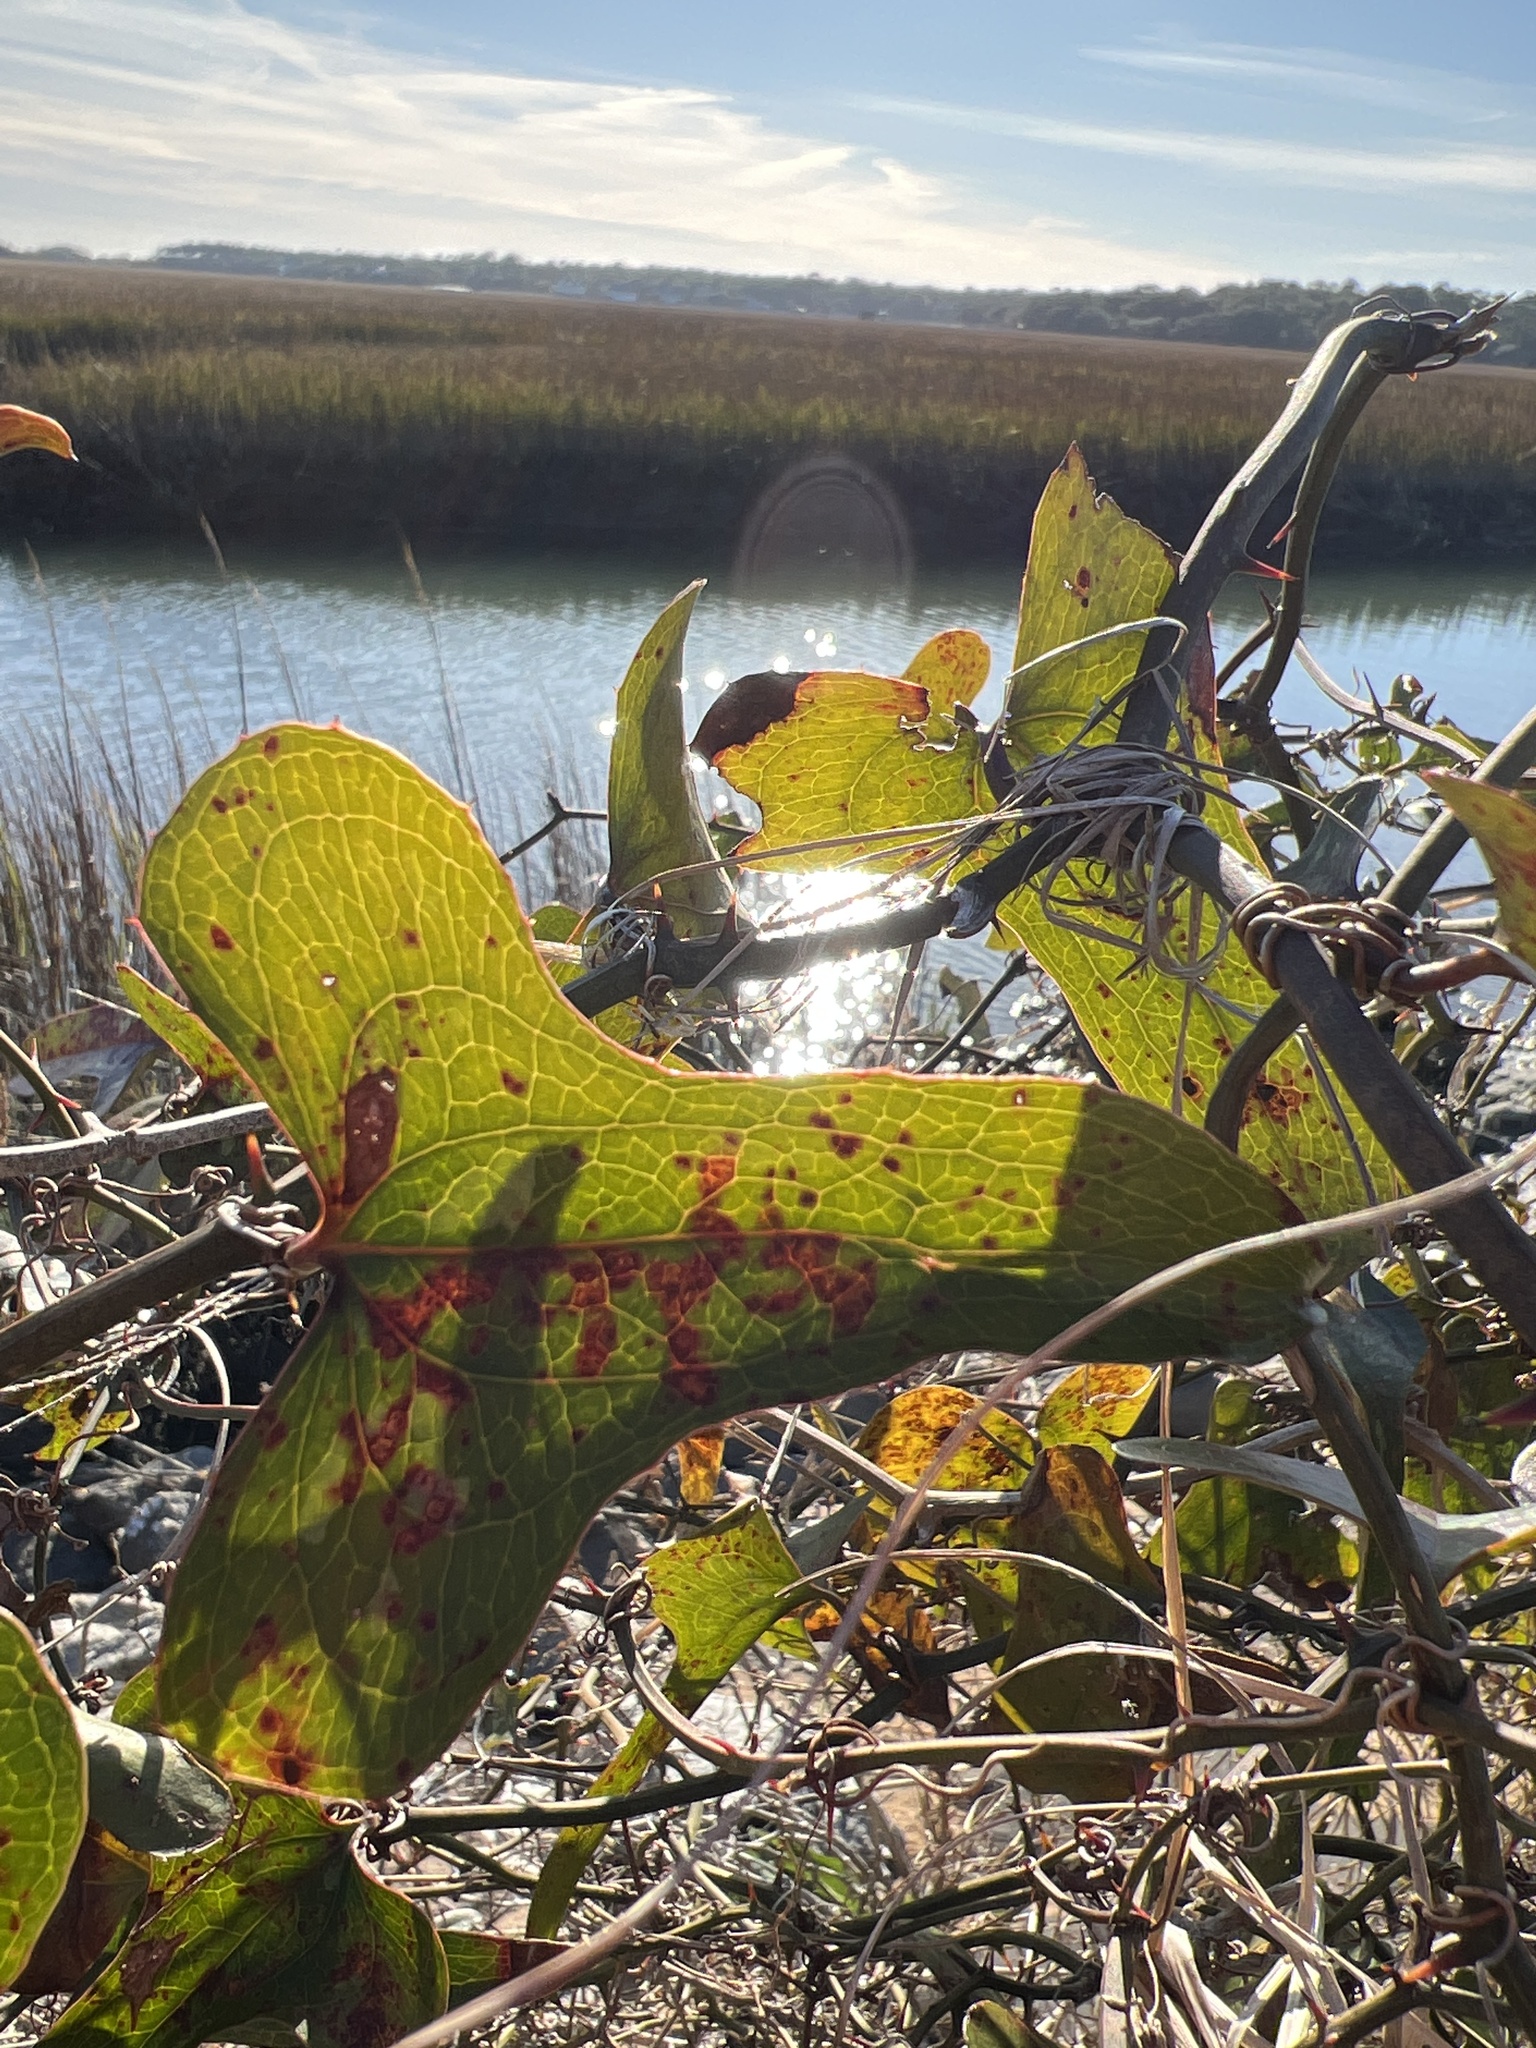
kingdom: Plantae
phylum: Tracheophyta
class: Liliopsida
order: Liliales
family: Smilacaceae
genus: Smilax
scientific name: Smilax bona-nox
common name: Catbrier
